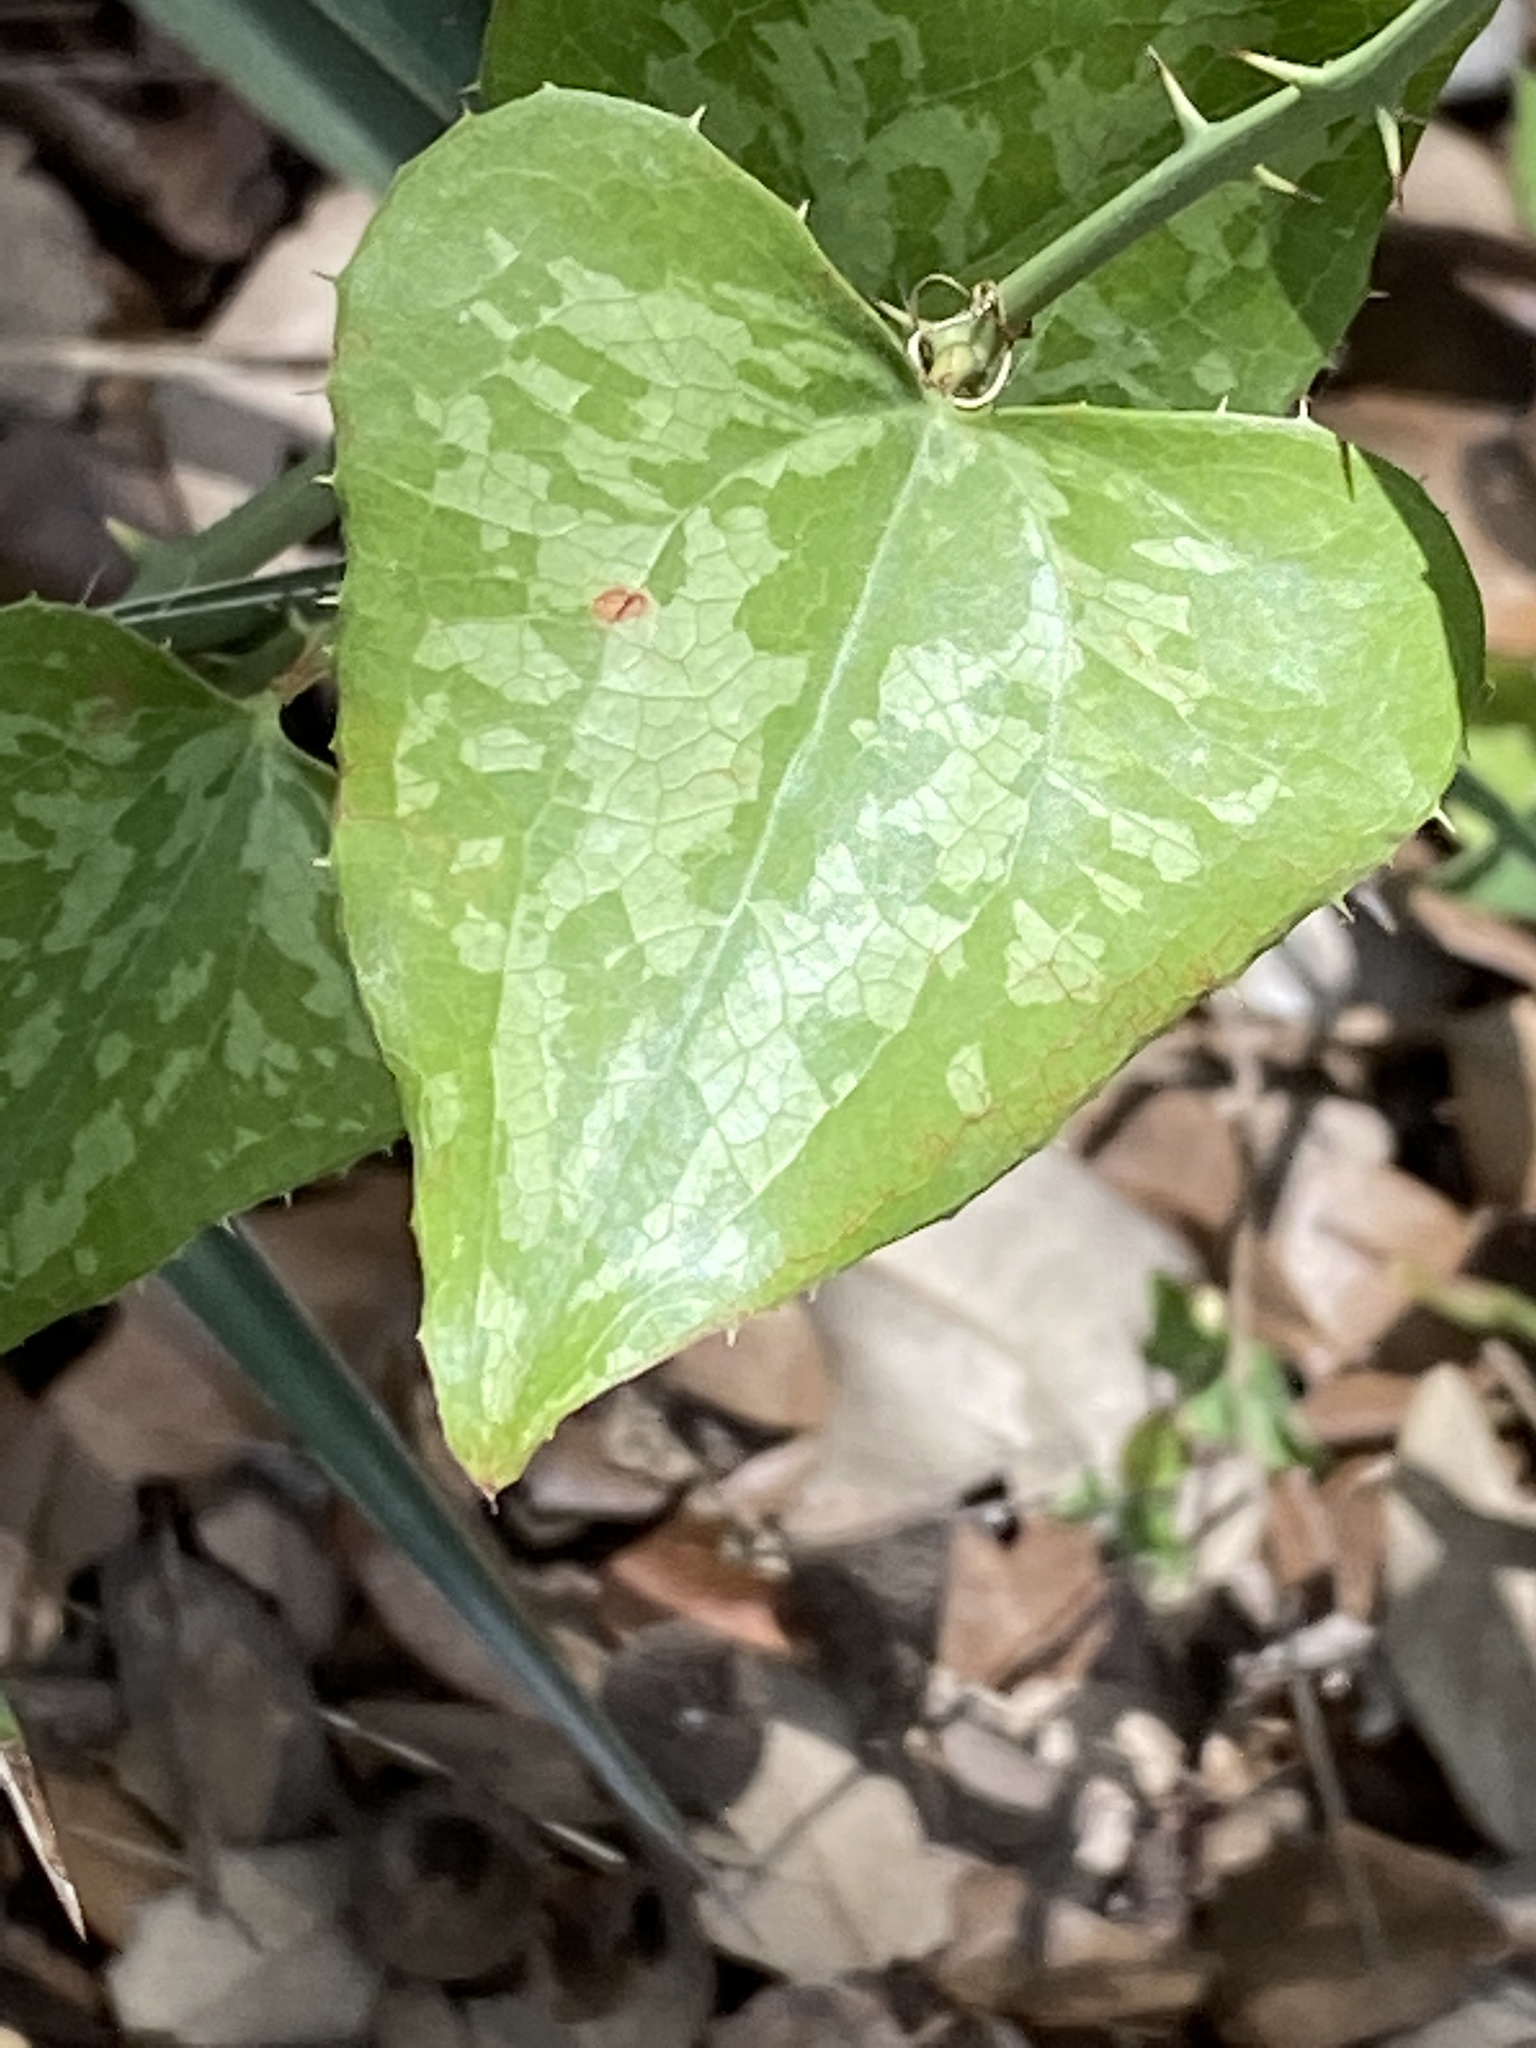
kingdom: Plantae
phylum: Tracheophyta
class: Liliopsida
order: Liliales
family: Smilacaceae
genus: Smilax
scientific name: Smilax bona-nox
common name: Catbrier
